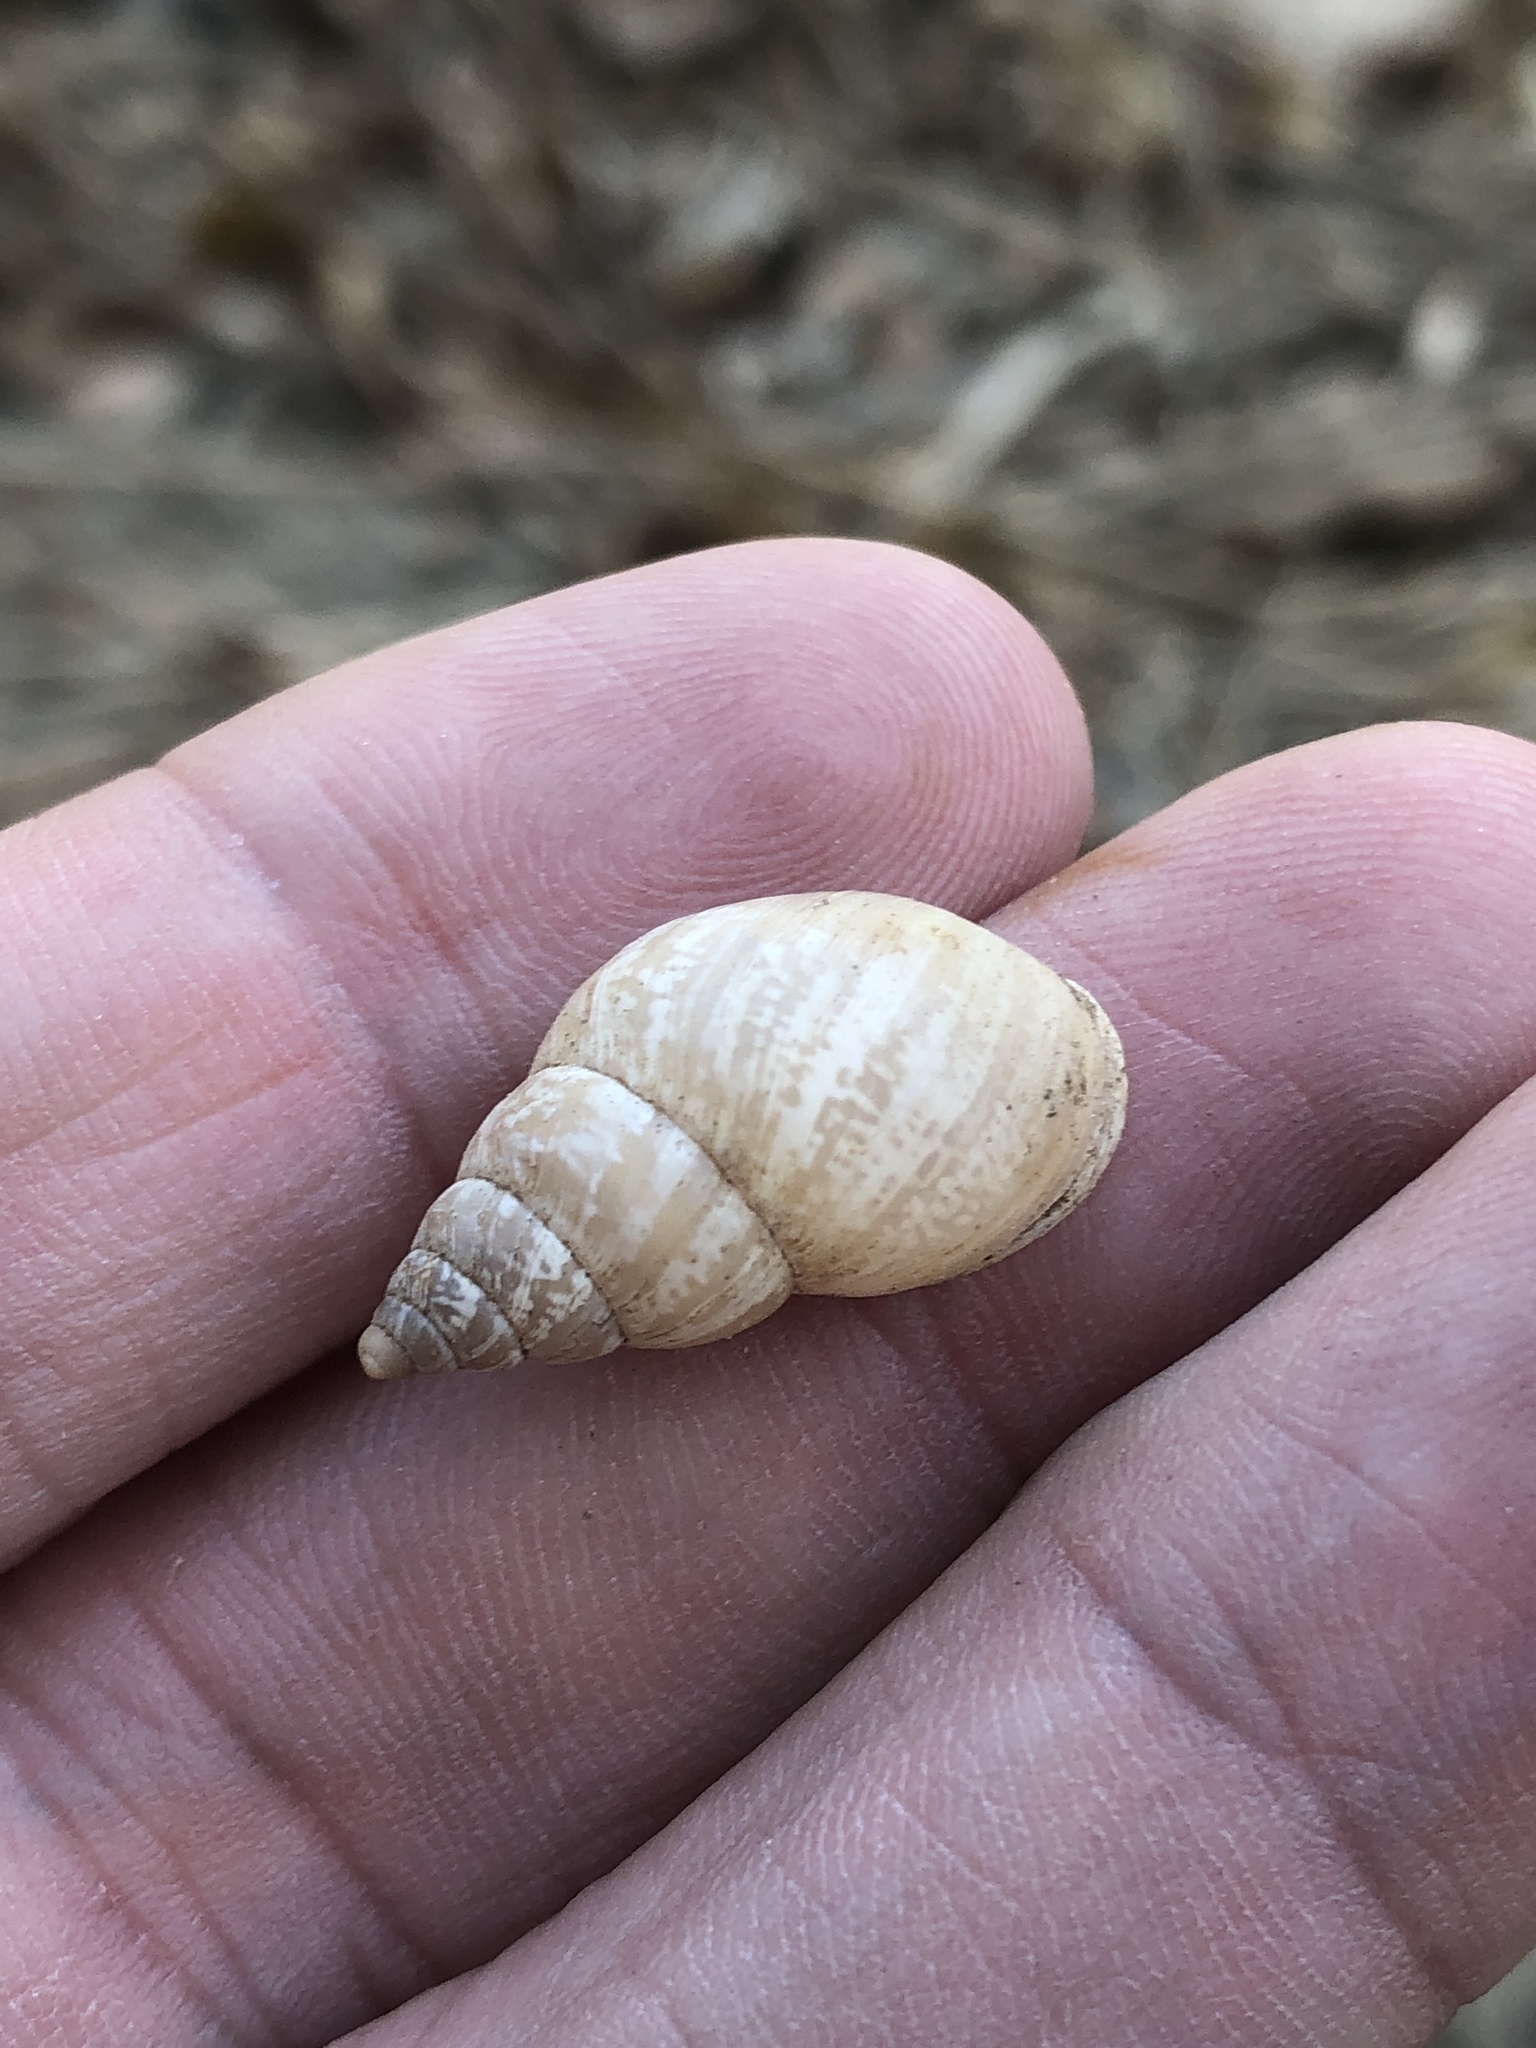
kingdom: Animalia
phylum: Mollusca
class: Gastropoda
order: Stylommatophora
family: Bulimulidae
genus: Rabdotus
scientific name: Rabdotus dealbatus
